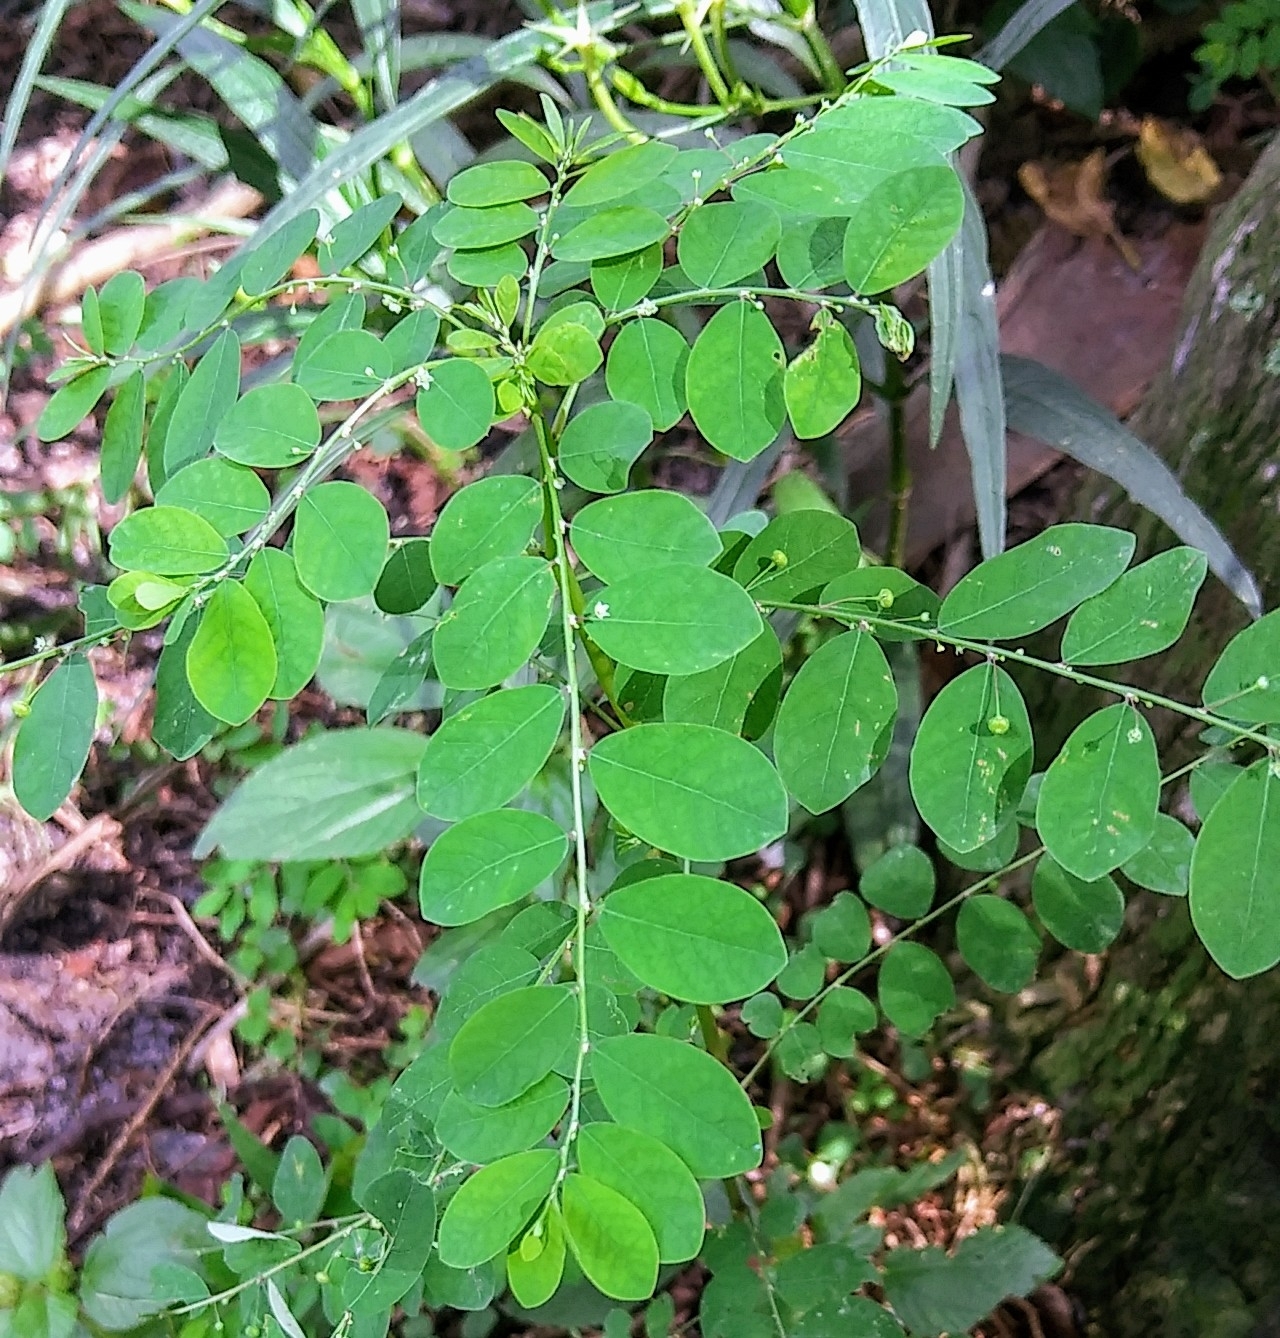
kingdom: Plantae
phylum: Tracheophyta
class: Magnoliopsida
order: Malpighiales
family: Phyllanthaceae
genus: Phyllanthus
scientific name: Phyllanthus tenellus
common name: Mascarene island leaf-flower
